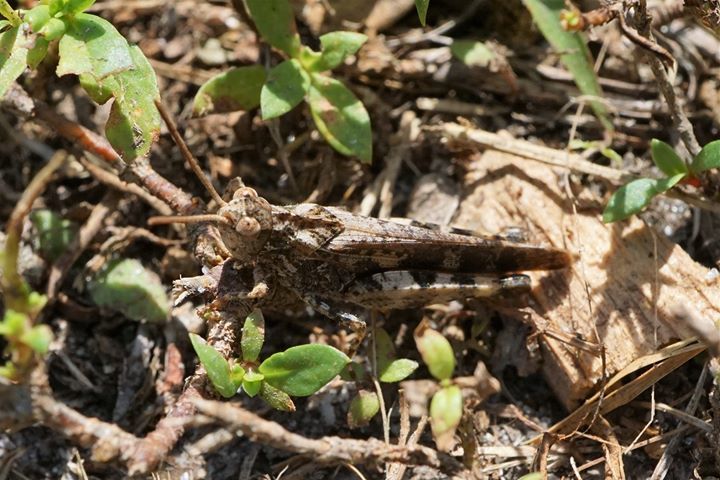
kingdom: Animalia
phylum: Arthropoda
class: Insecta
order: Orthoptera
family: Acrididae
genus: Chortophaga
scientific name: Chortophaga australior
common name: Southern green-striped grasshopper
